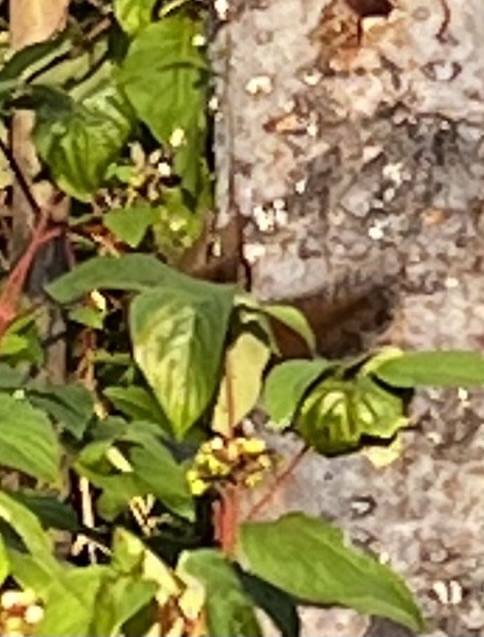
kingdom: Animalia
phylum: Chordata
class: Mammalia
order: Rodentia
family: Sciuridae
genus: Tamiasciurus
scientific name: Tamiasciurus hudsonicus
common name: Red squirrel
